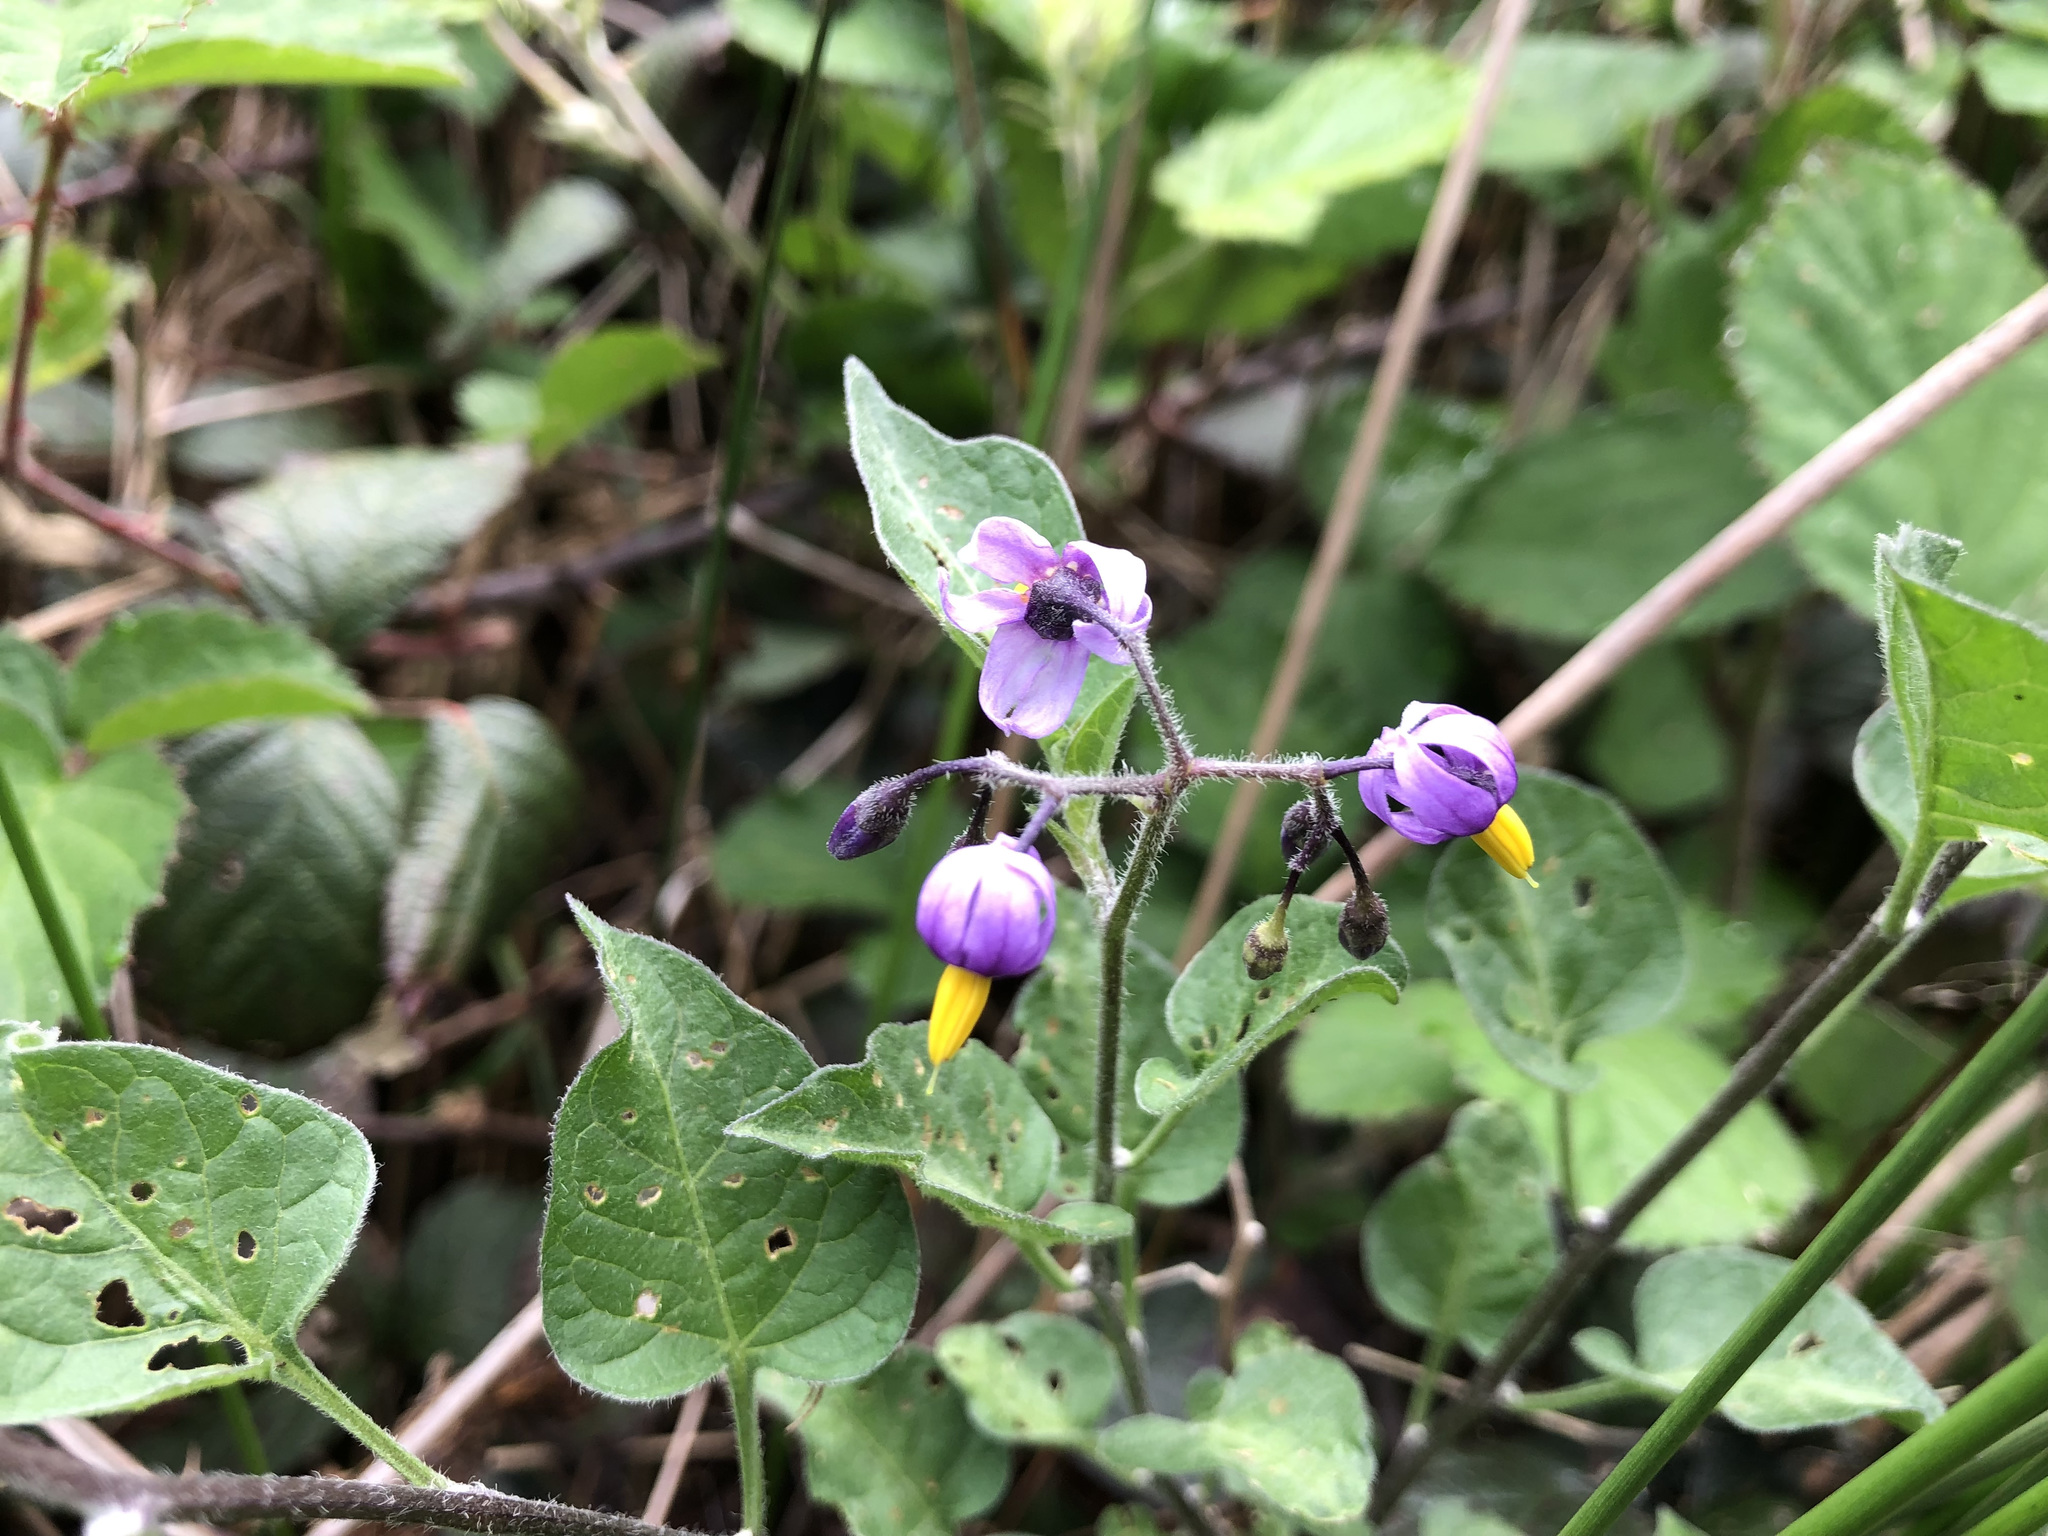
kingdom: Plantae
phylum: Tracheophyta
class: Magnoliopsida
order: Solanales
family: Solanaceae
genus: Solanum
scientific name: Solanum dulcamara
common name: Climbing nightshade
